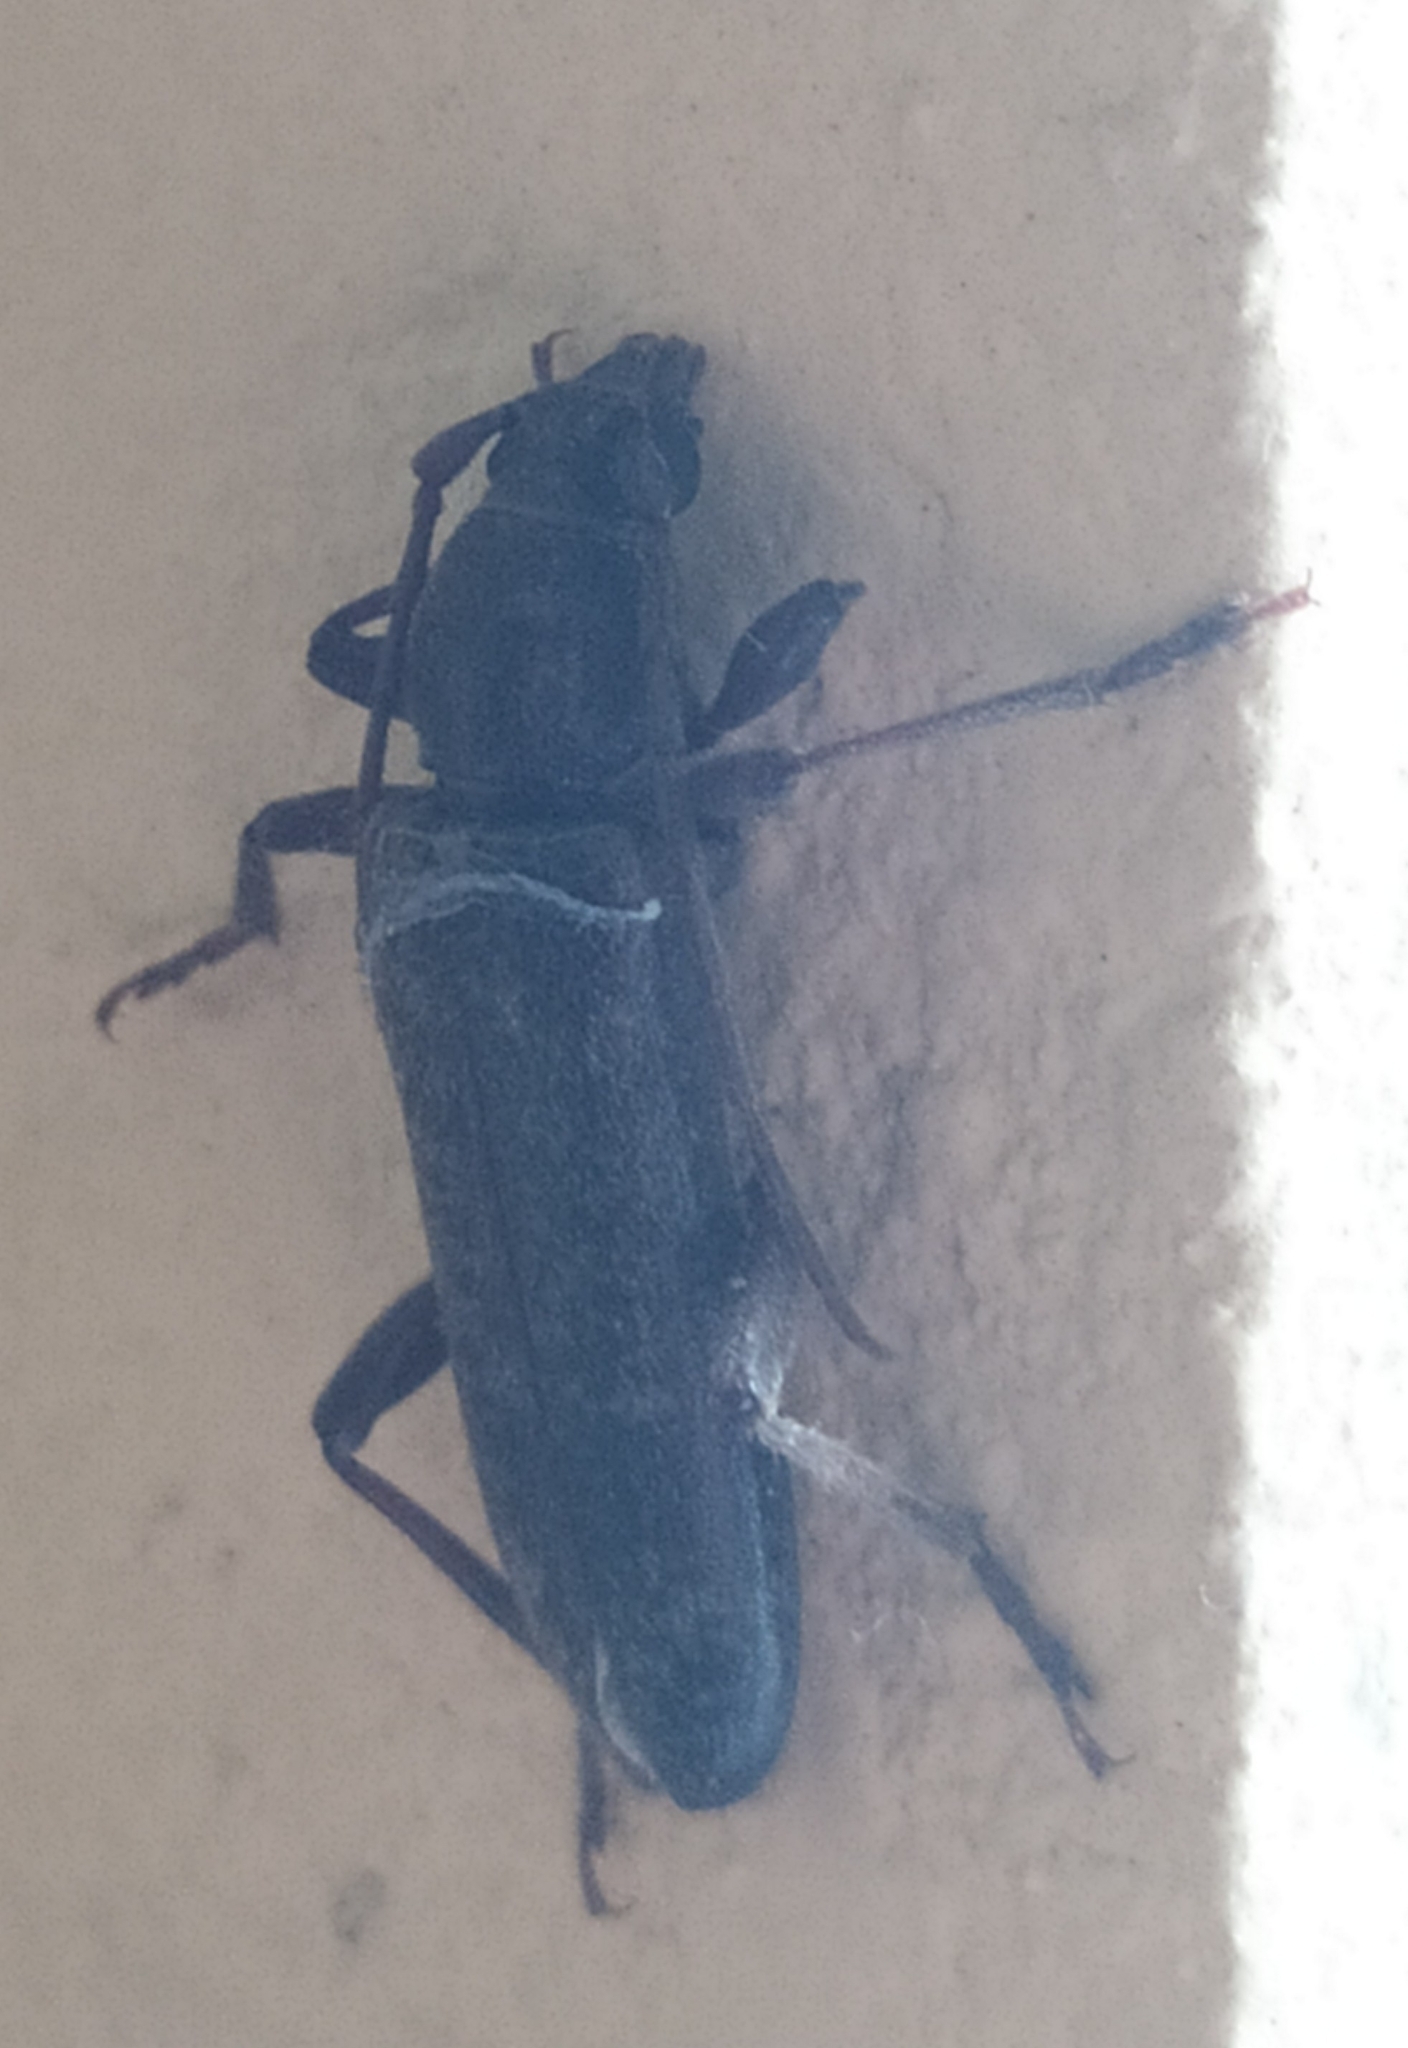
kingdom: Animalia
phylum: Arthropoda
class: Insecta
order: Coleoptera
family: Cerambycidae
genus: Trichoferus
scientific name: Trichoferus campestris
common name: Velvet long horned beetle
